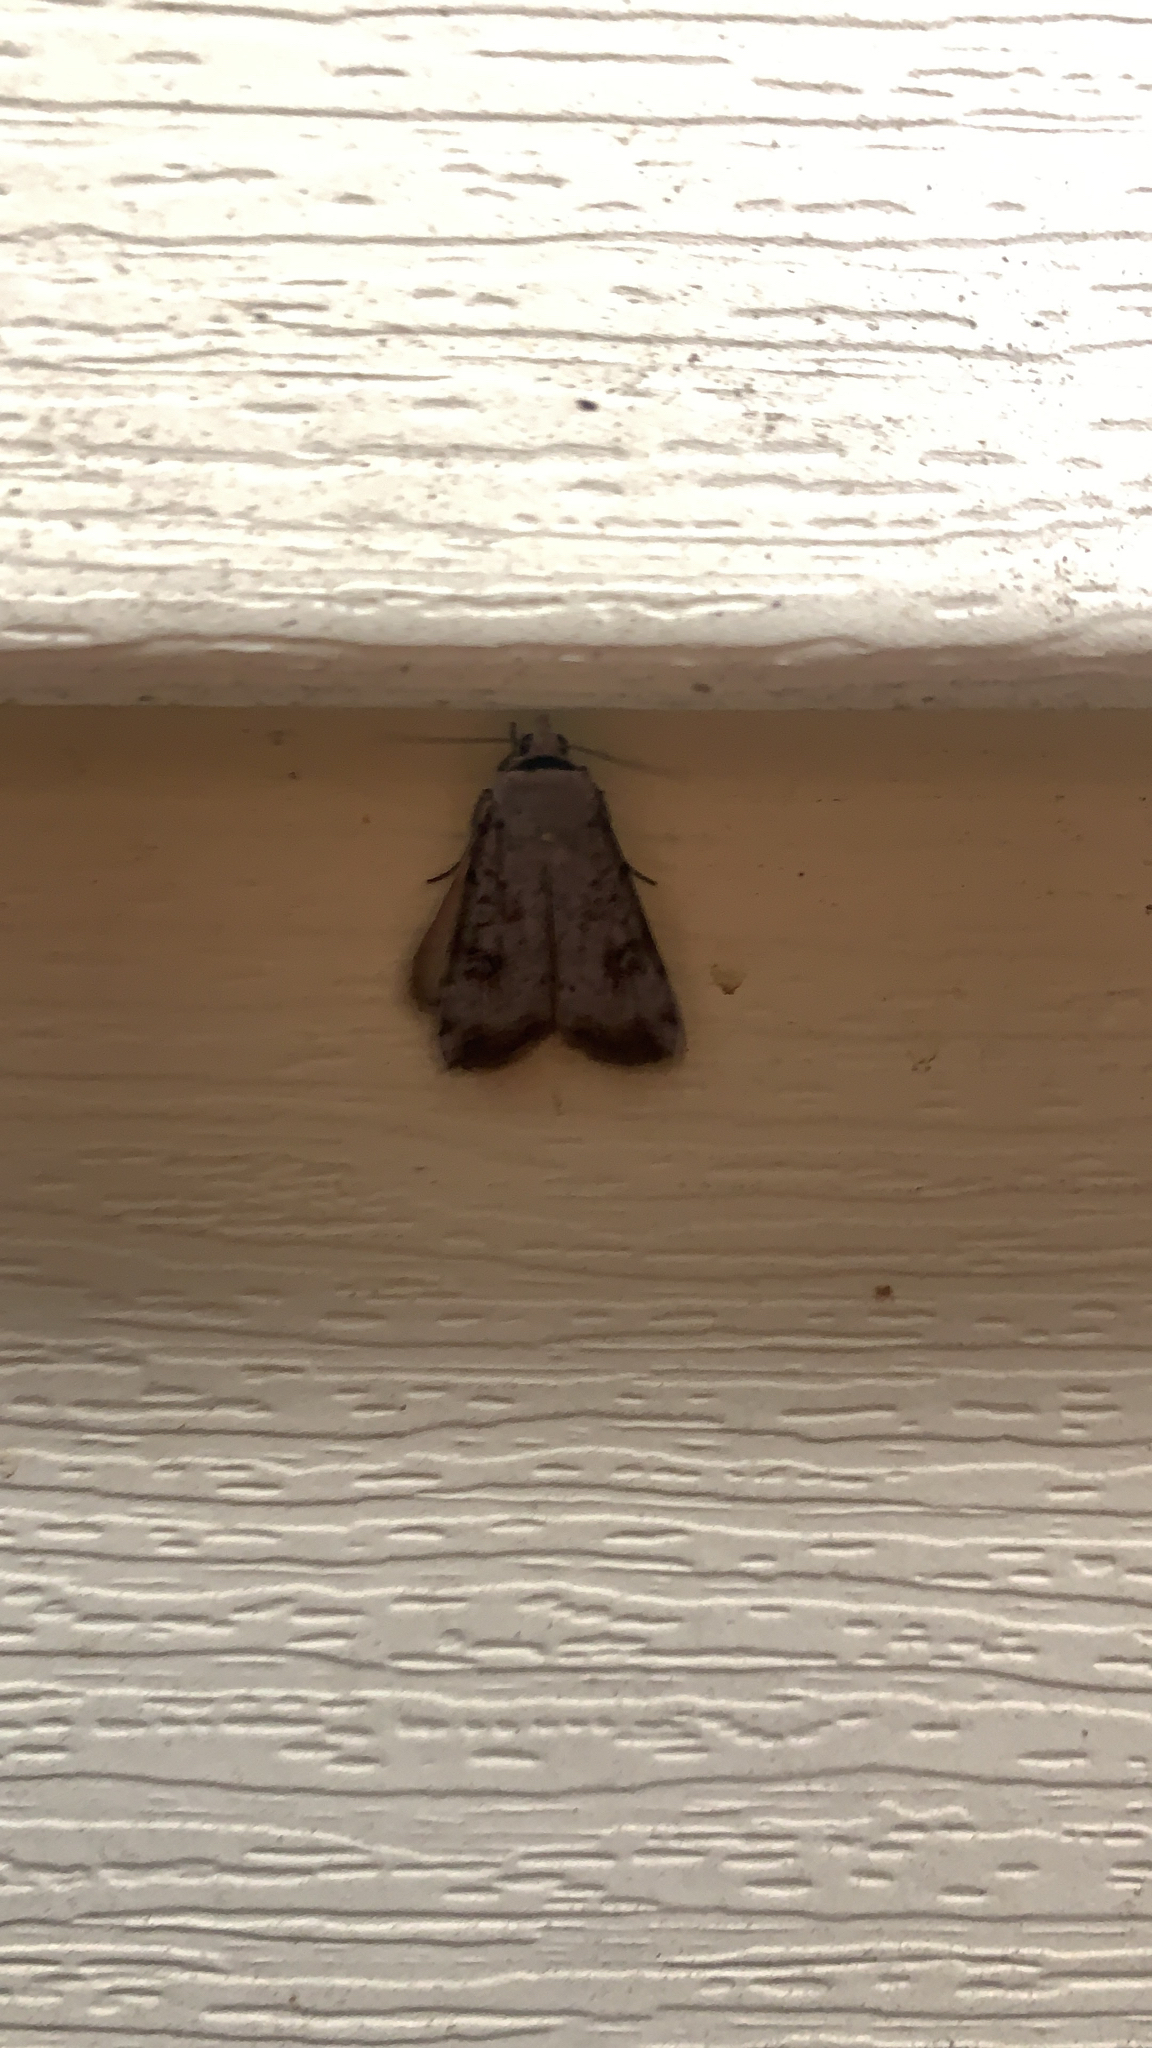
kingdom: Animalia
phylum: Arthropoda
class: Insecta
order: Lepidoptera
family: Noctuidae
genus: Anicla
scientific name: Anicla infecta
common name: Green cutworm
